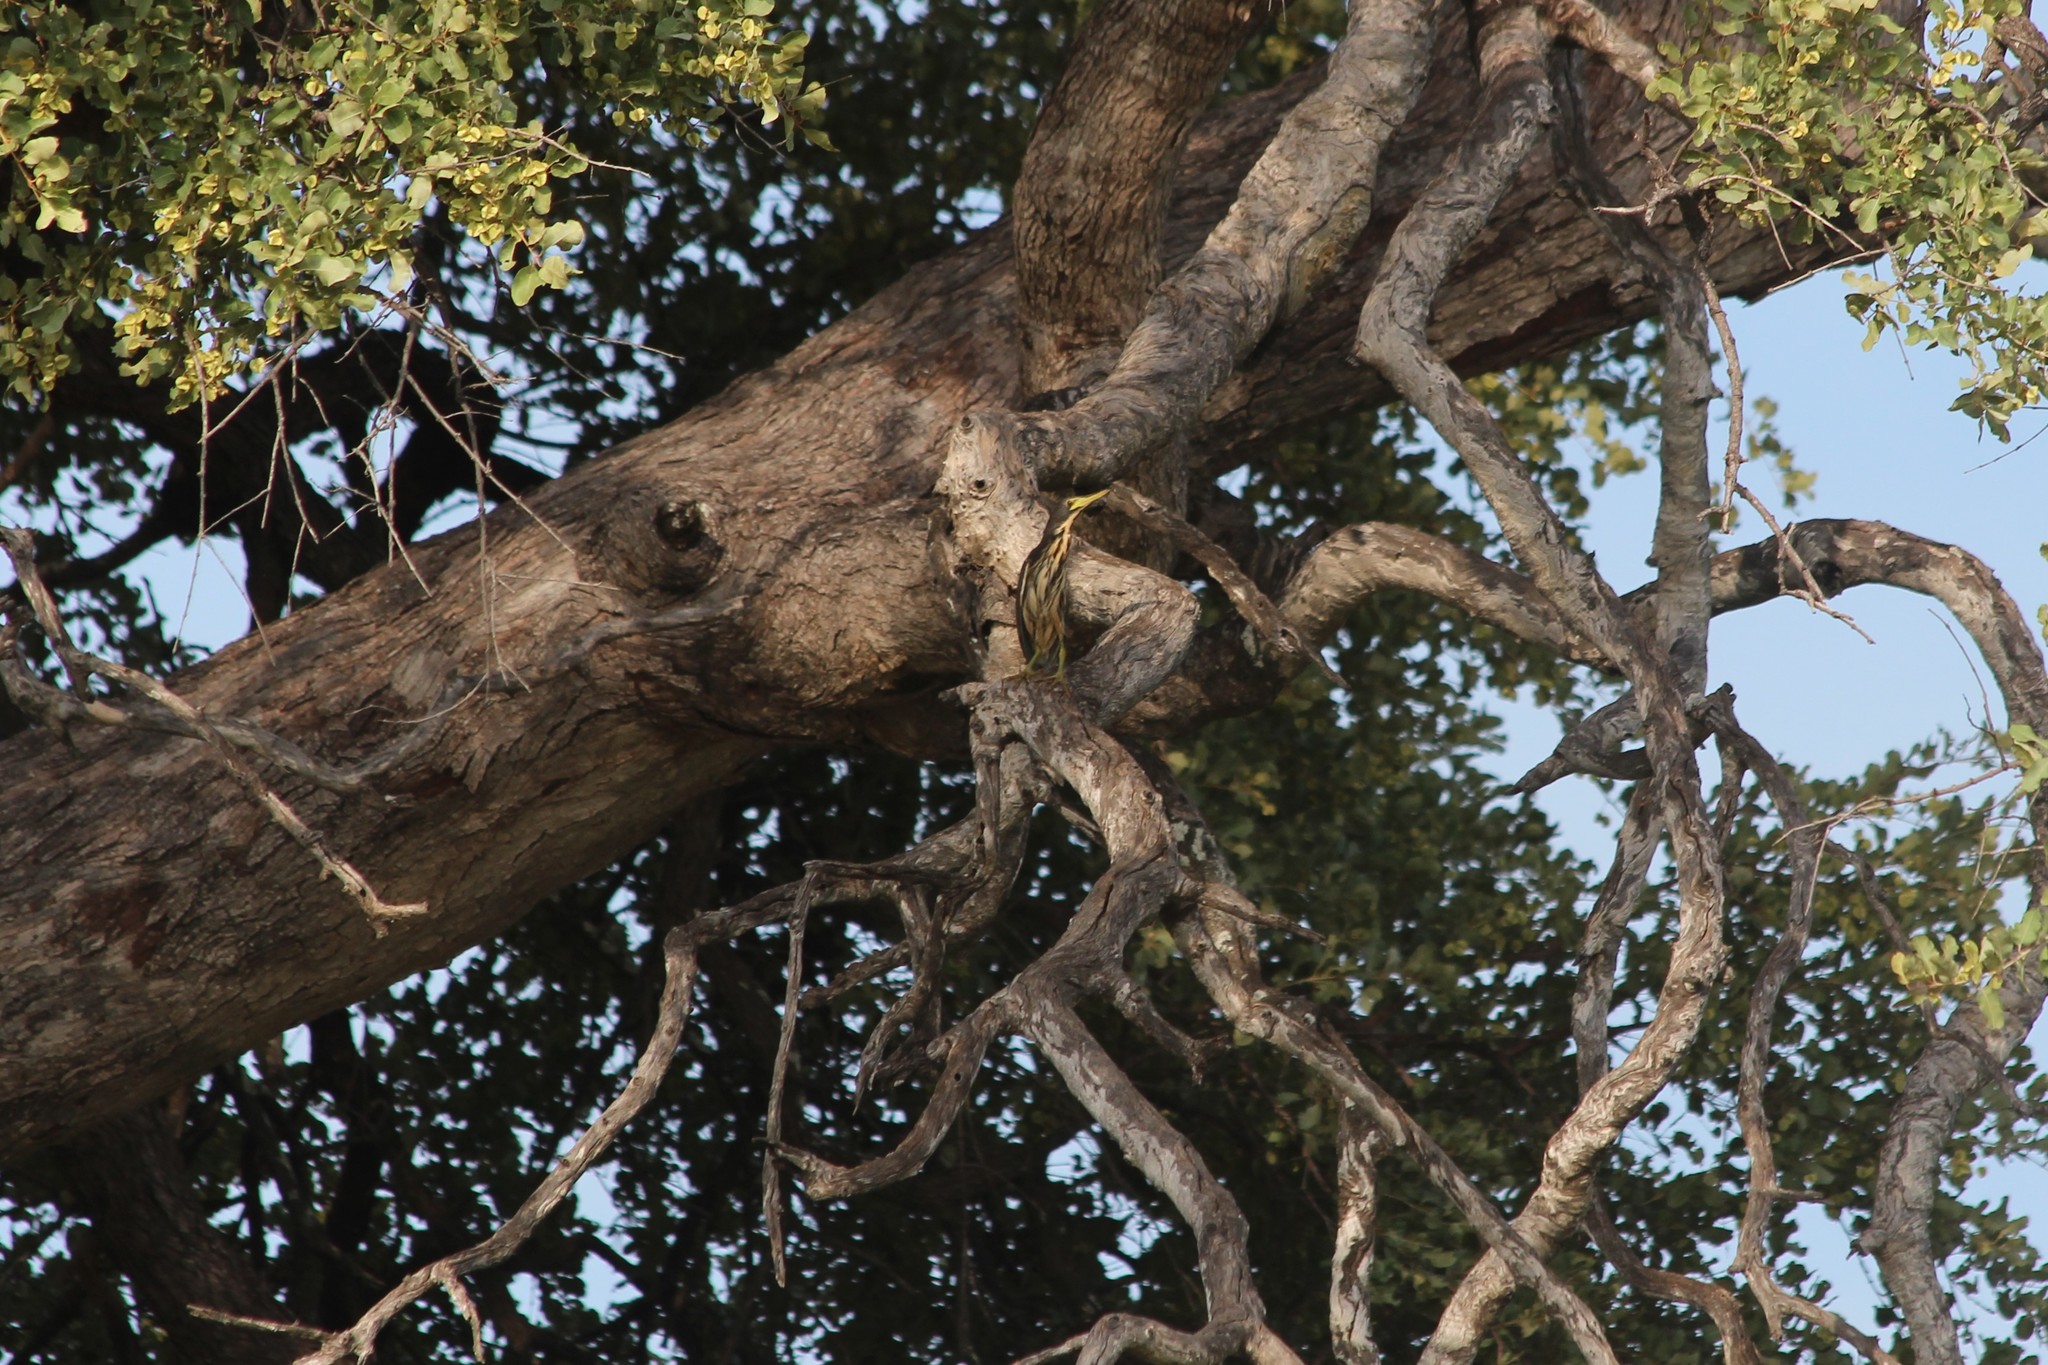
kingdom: Animalia
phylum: Chordata
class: Aves
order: Pelecaniformes
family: Ardeidae
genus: Ixobrychus
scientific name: Ixobrychus sturmii
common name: Dwarf bittern
